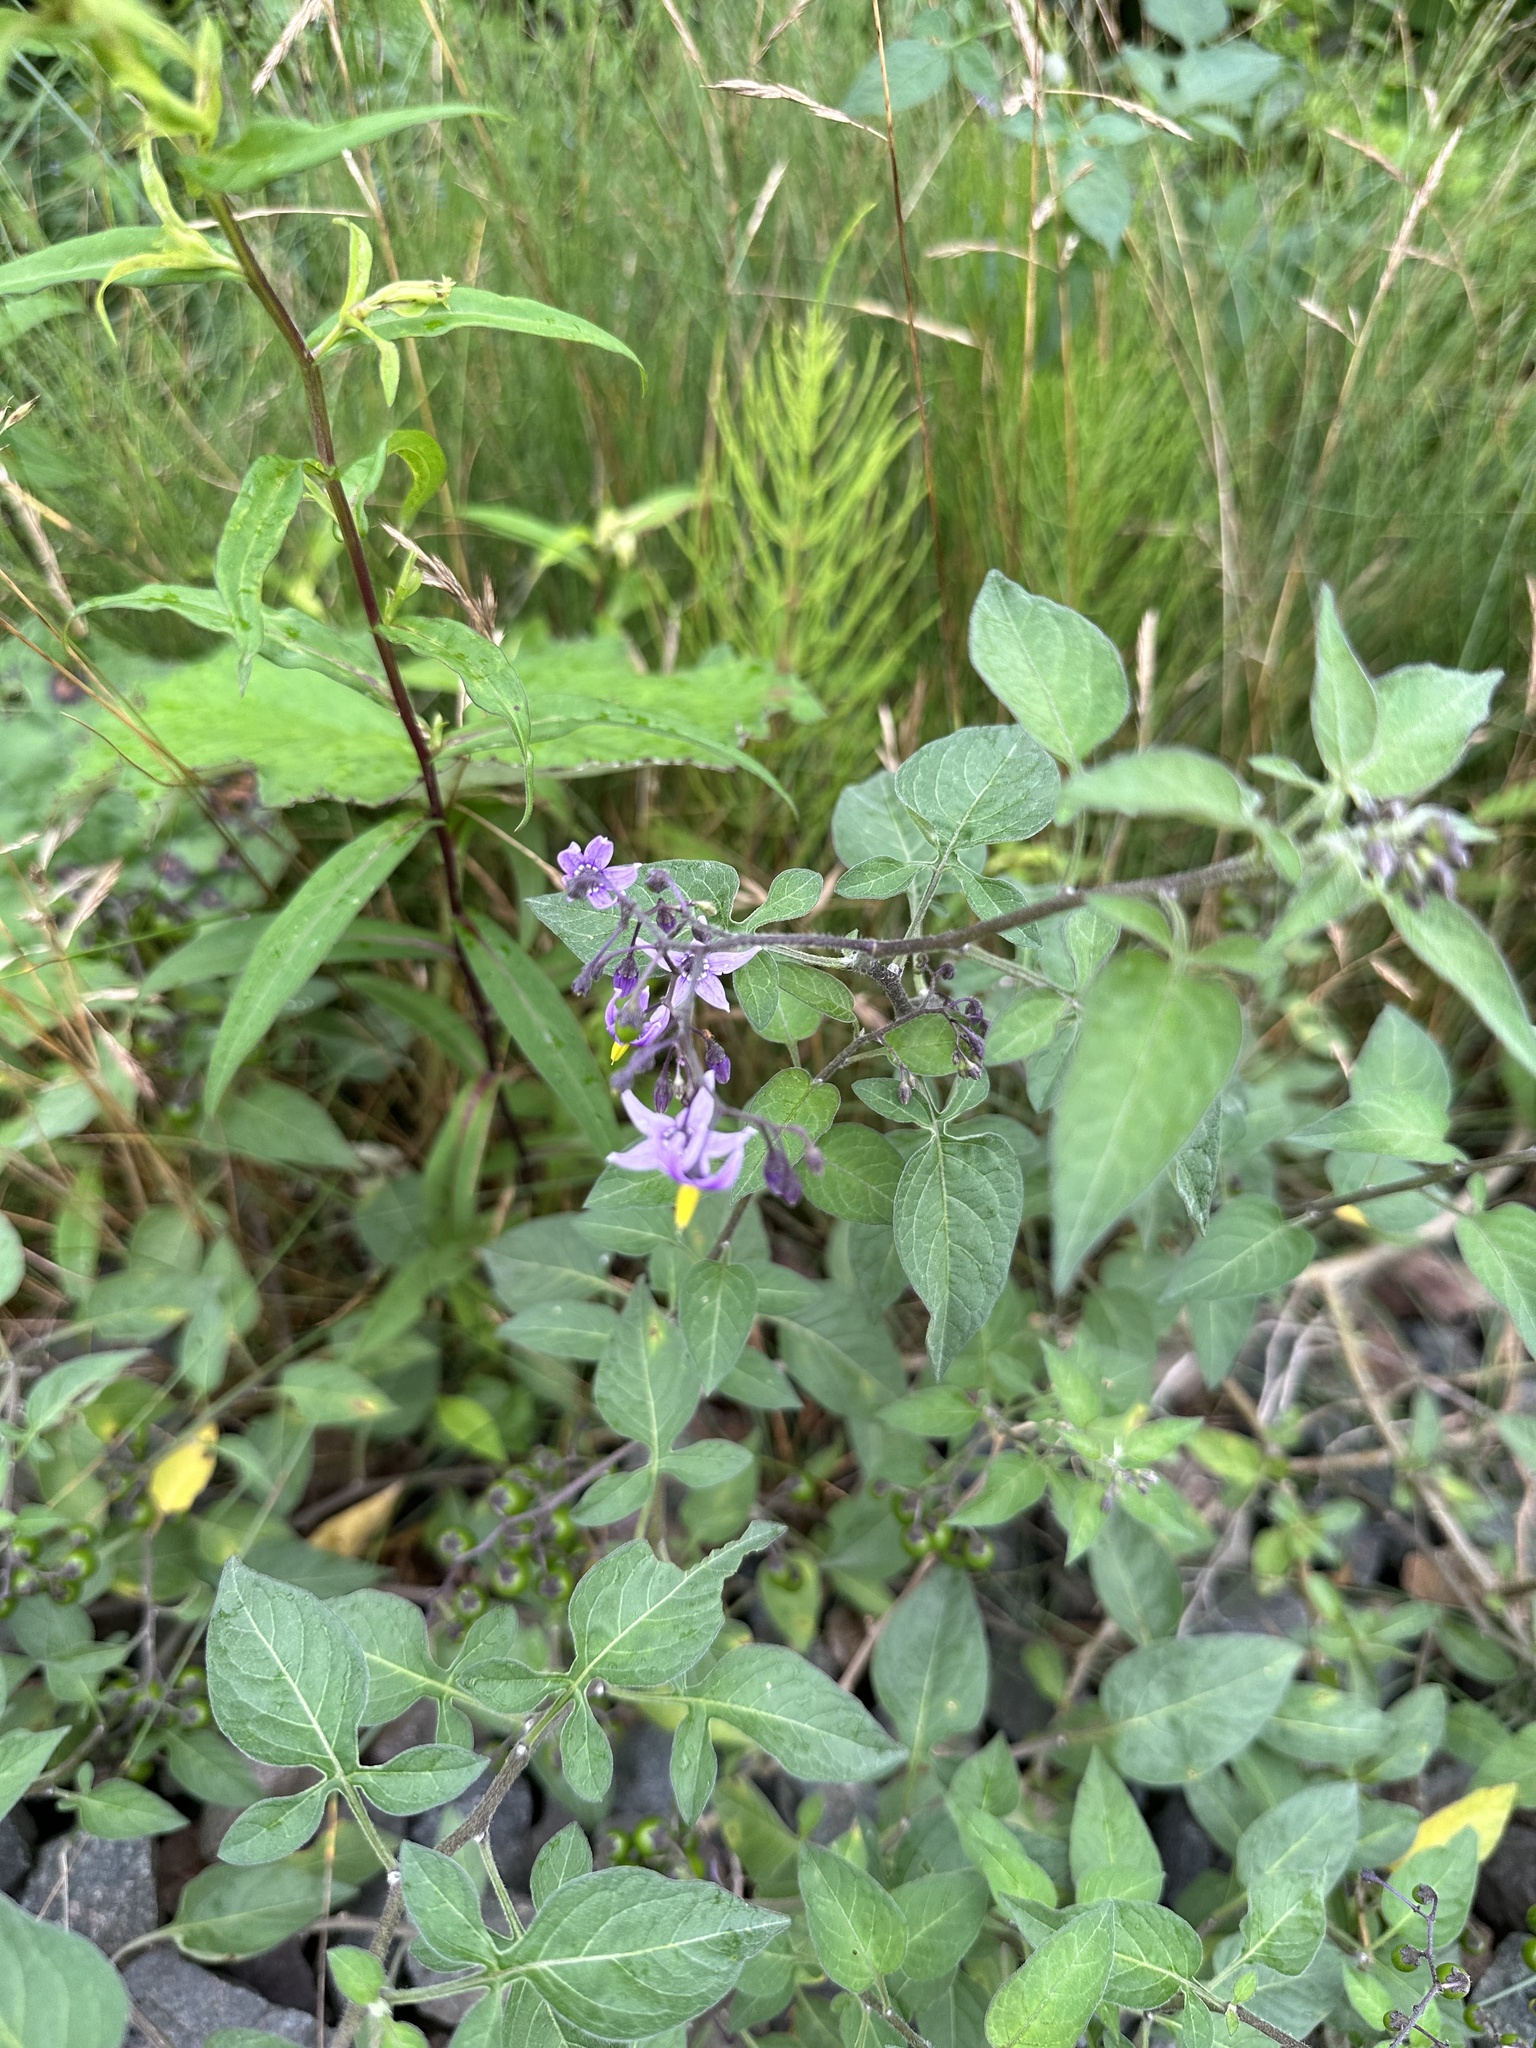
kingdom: Plantae
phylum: Tracheophyta
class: Magnoliopsida
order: Solanales
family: Solanaceae
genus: Solanum
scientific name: Solanum dulcamara
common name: Climbing nightshade
